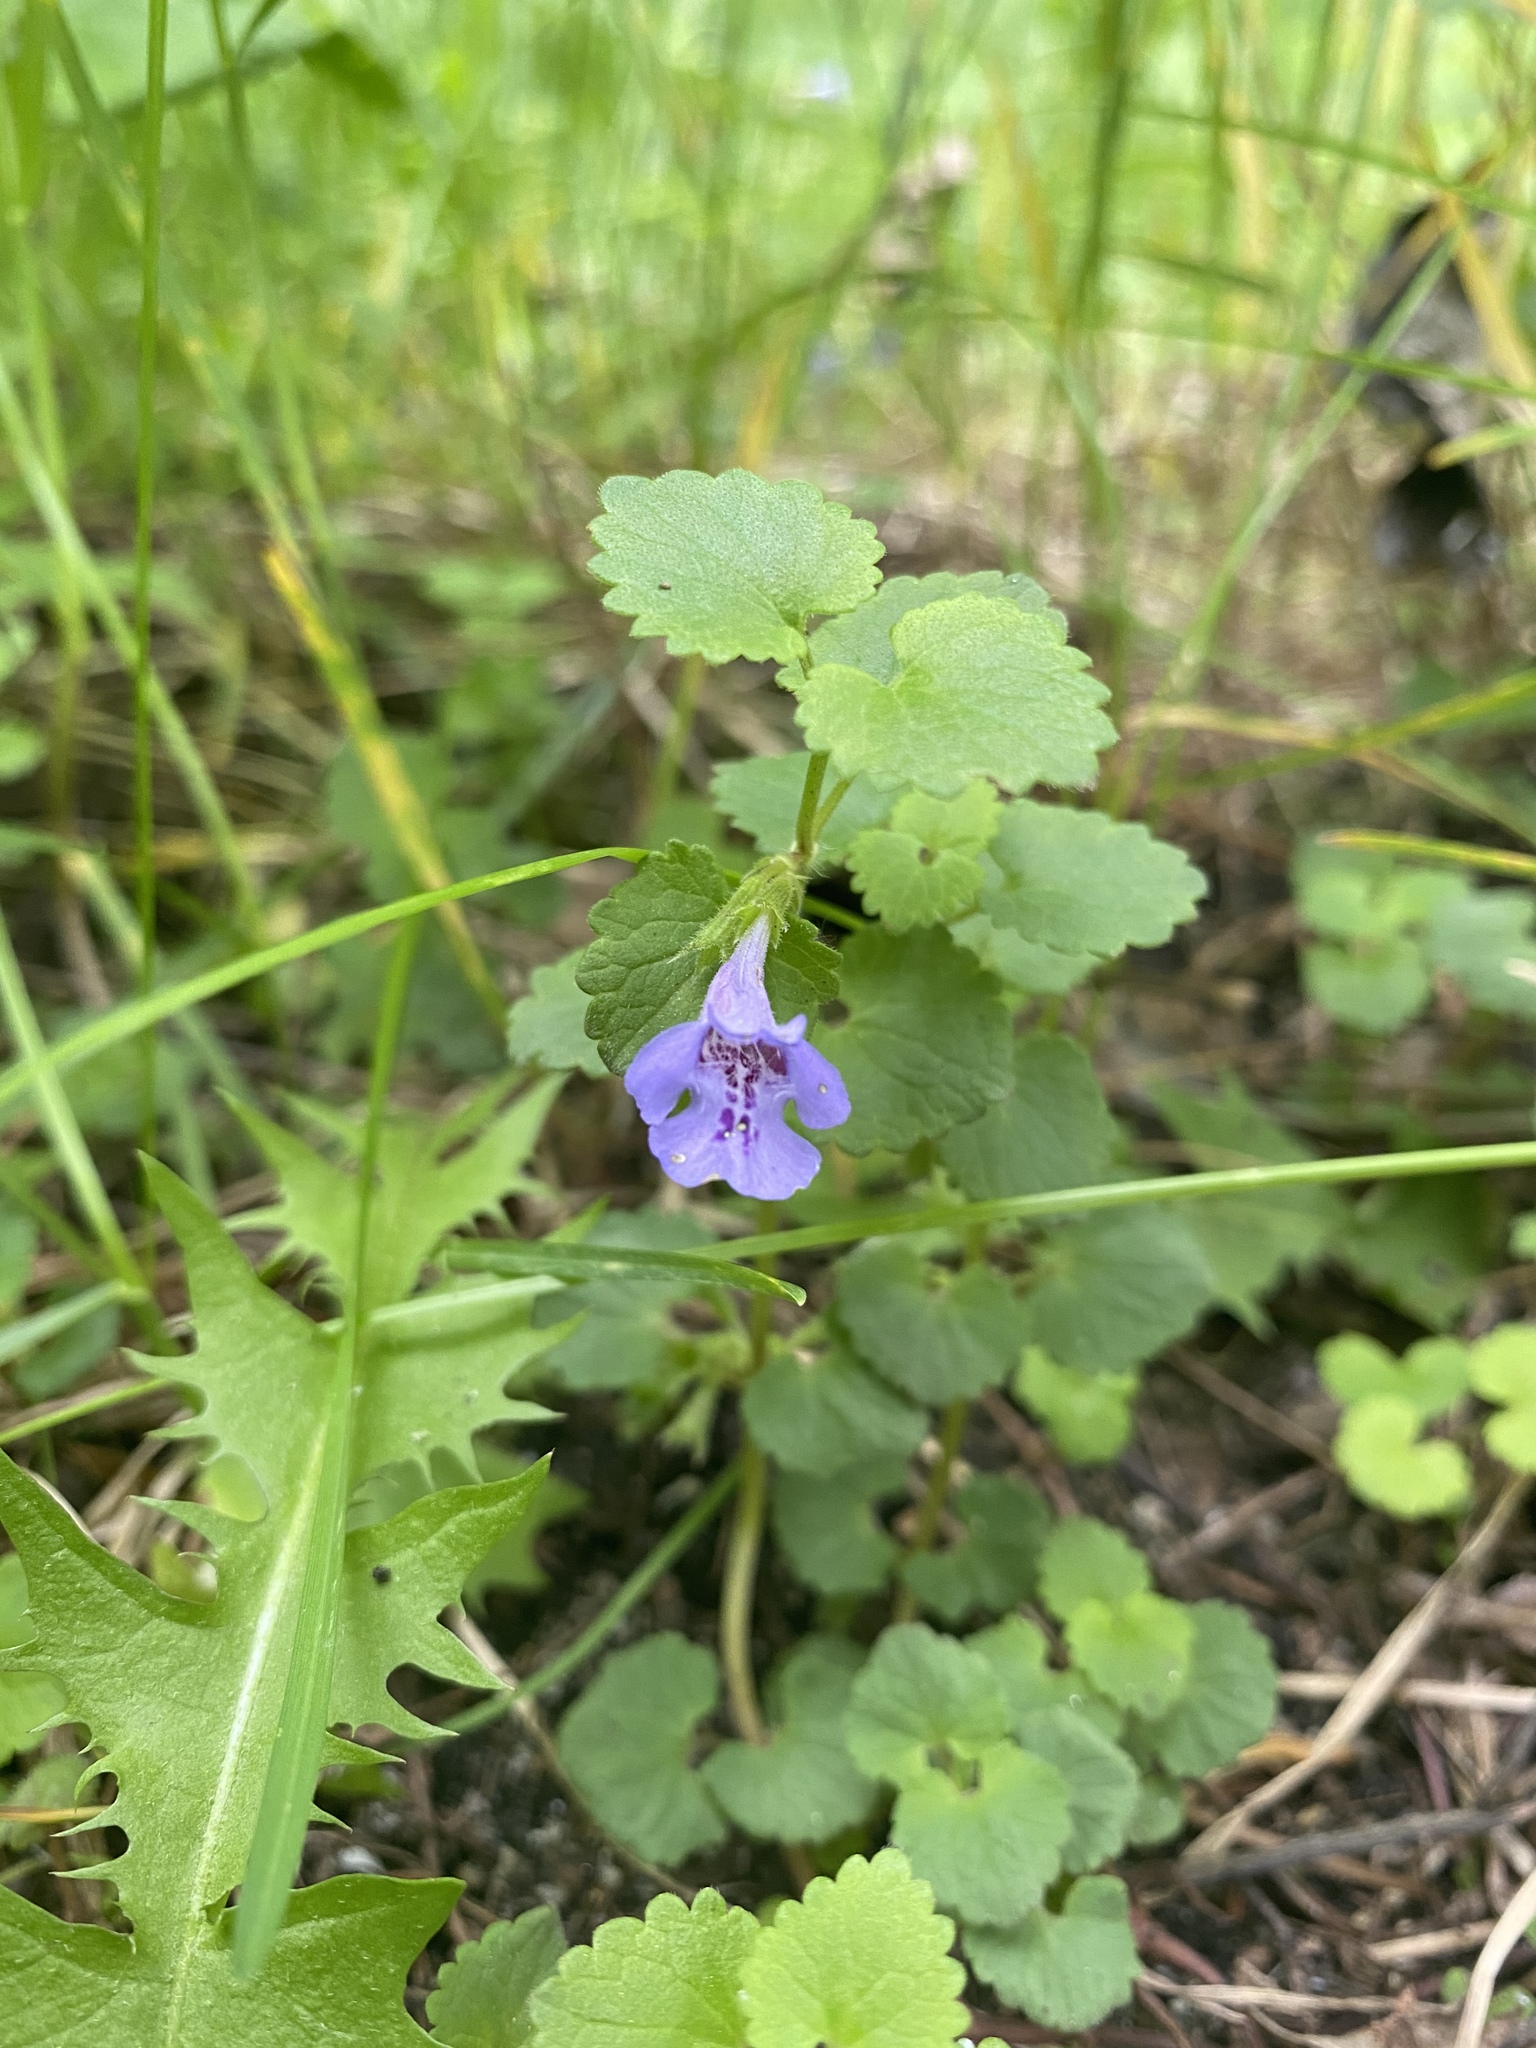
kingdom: Plantae
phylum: Tracheophyta
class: Magnoliopsida
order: Lamiales
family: Lamiaceae
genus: Glechoma
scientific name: Glechoma hederacea
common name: Ground ivy
